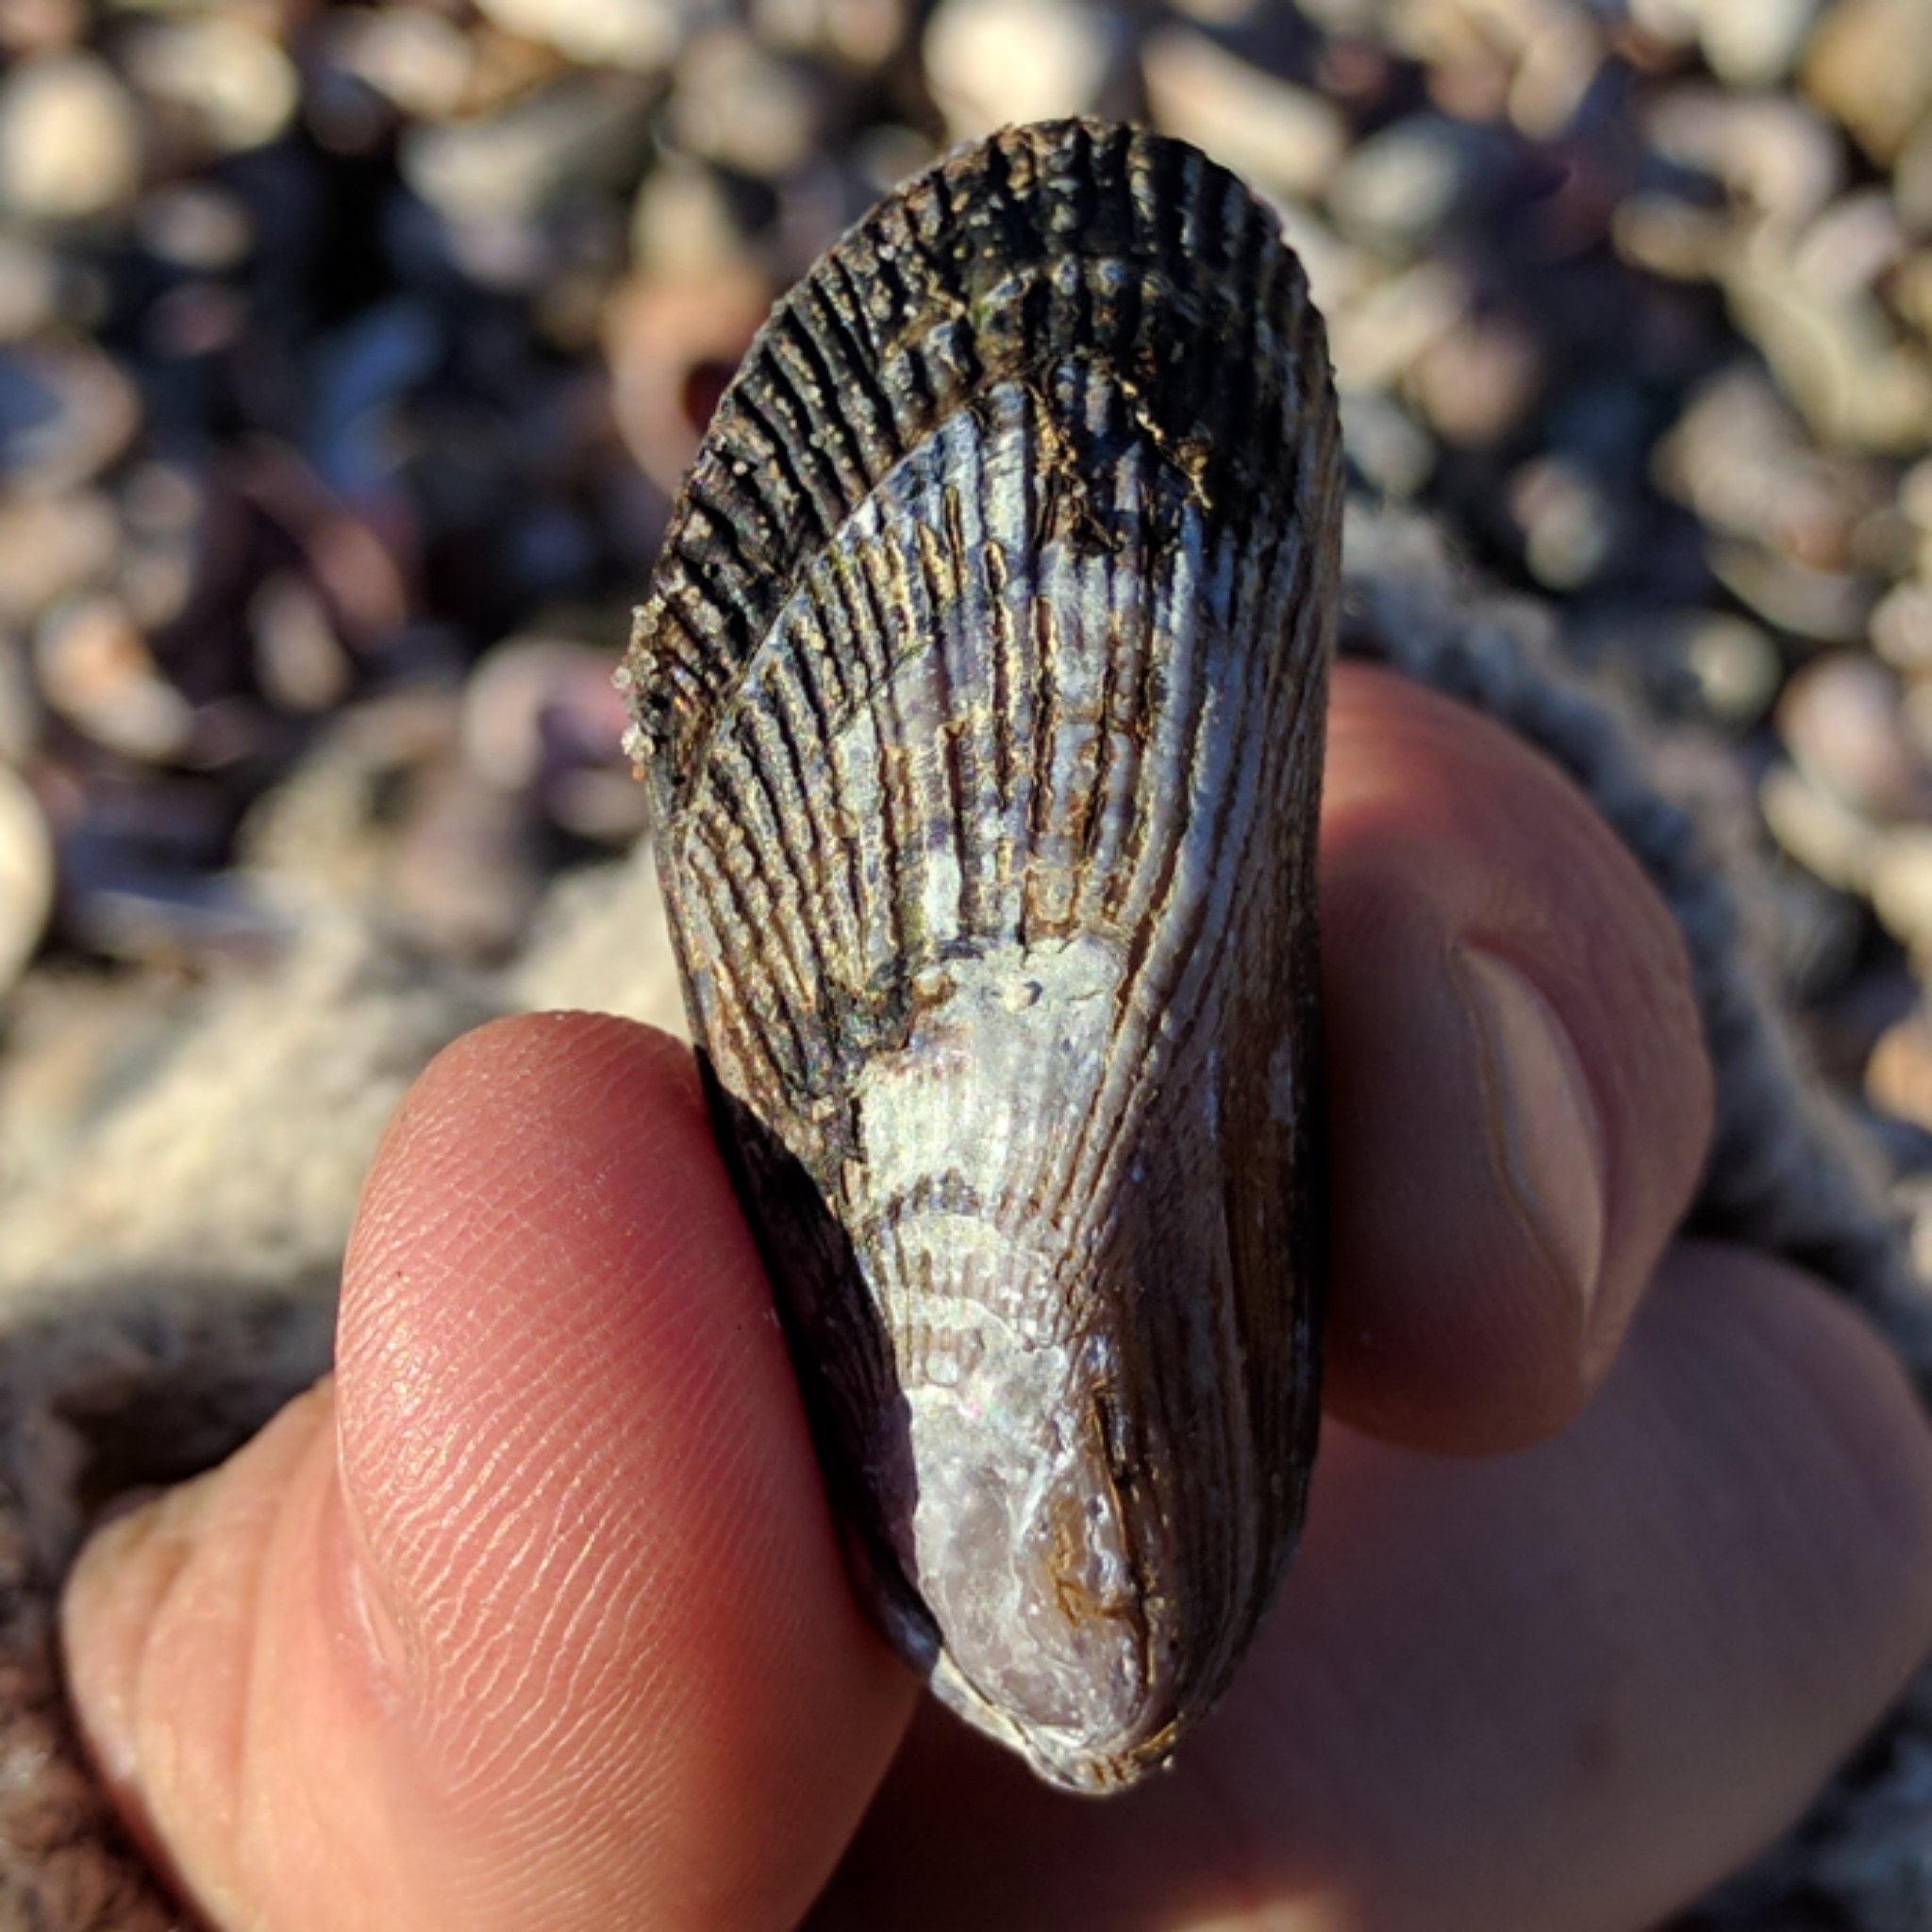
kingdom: Animalia
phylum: Mollusca
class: Bivalvia
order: Mytilida
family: Mytilidae
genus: Geukensia
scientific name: Geukensia demissa
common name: Ribbed mussel
